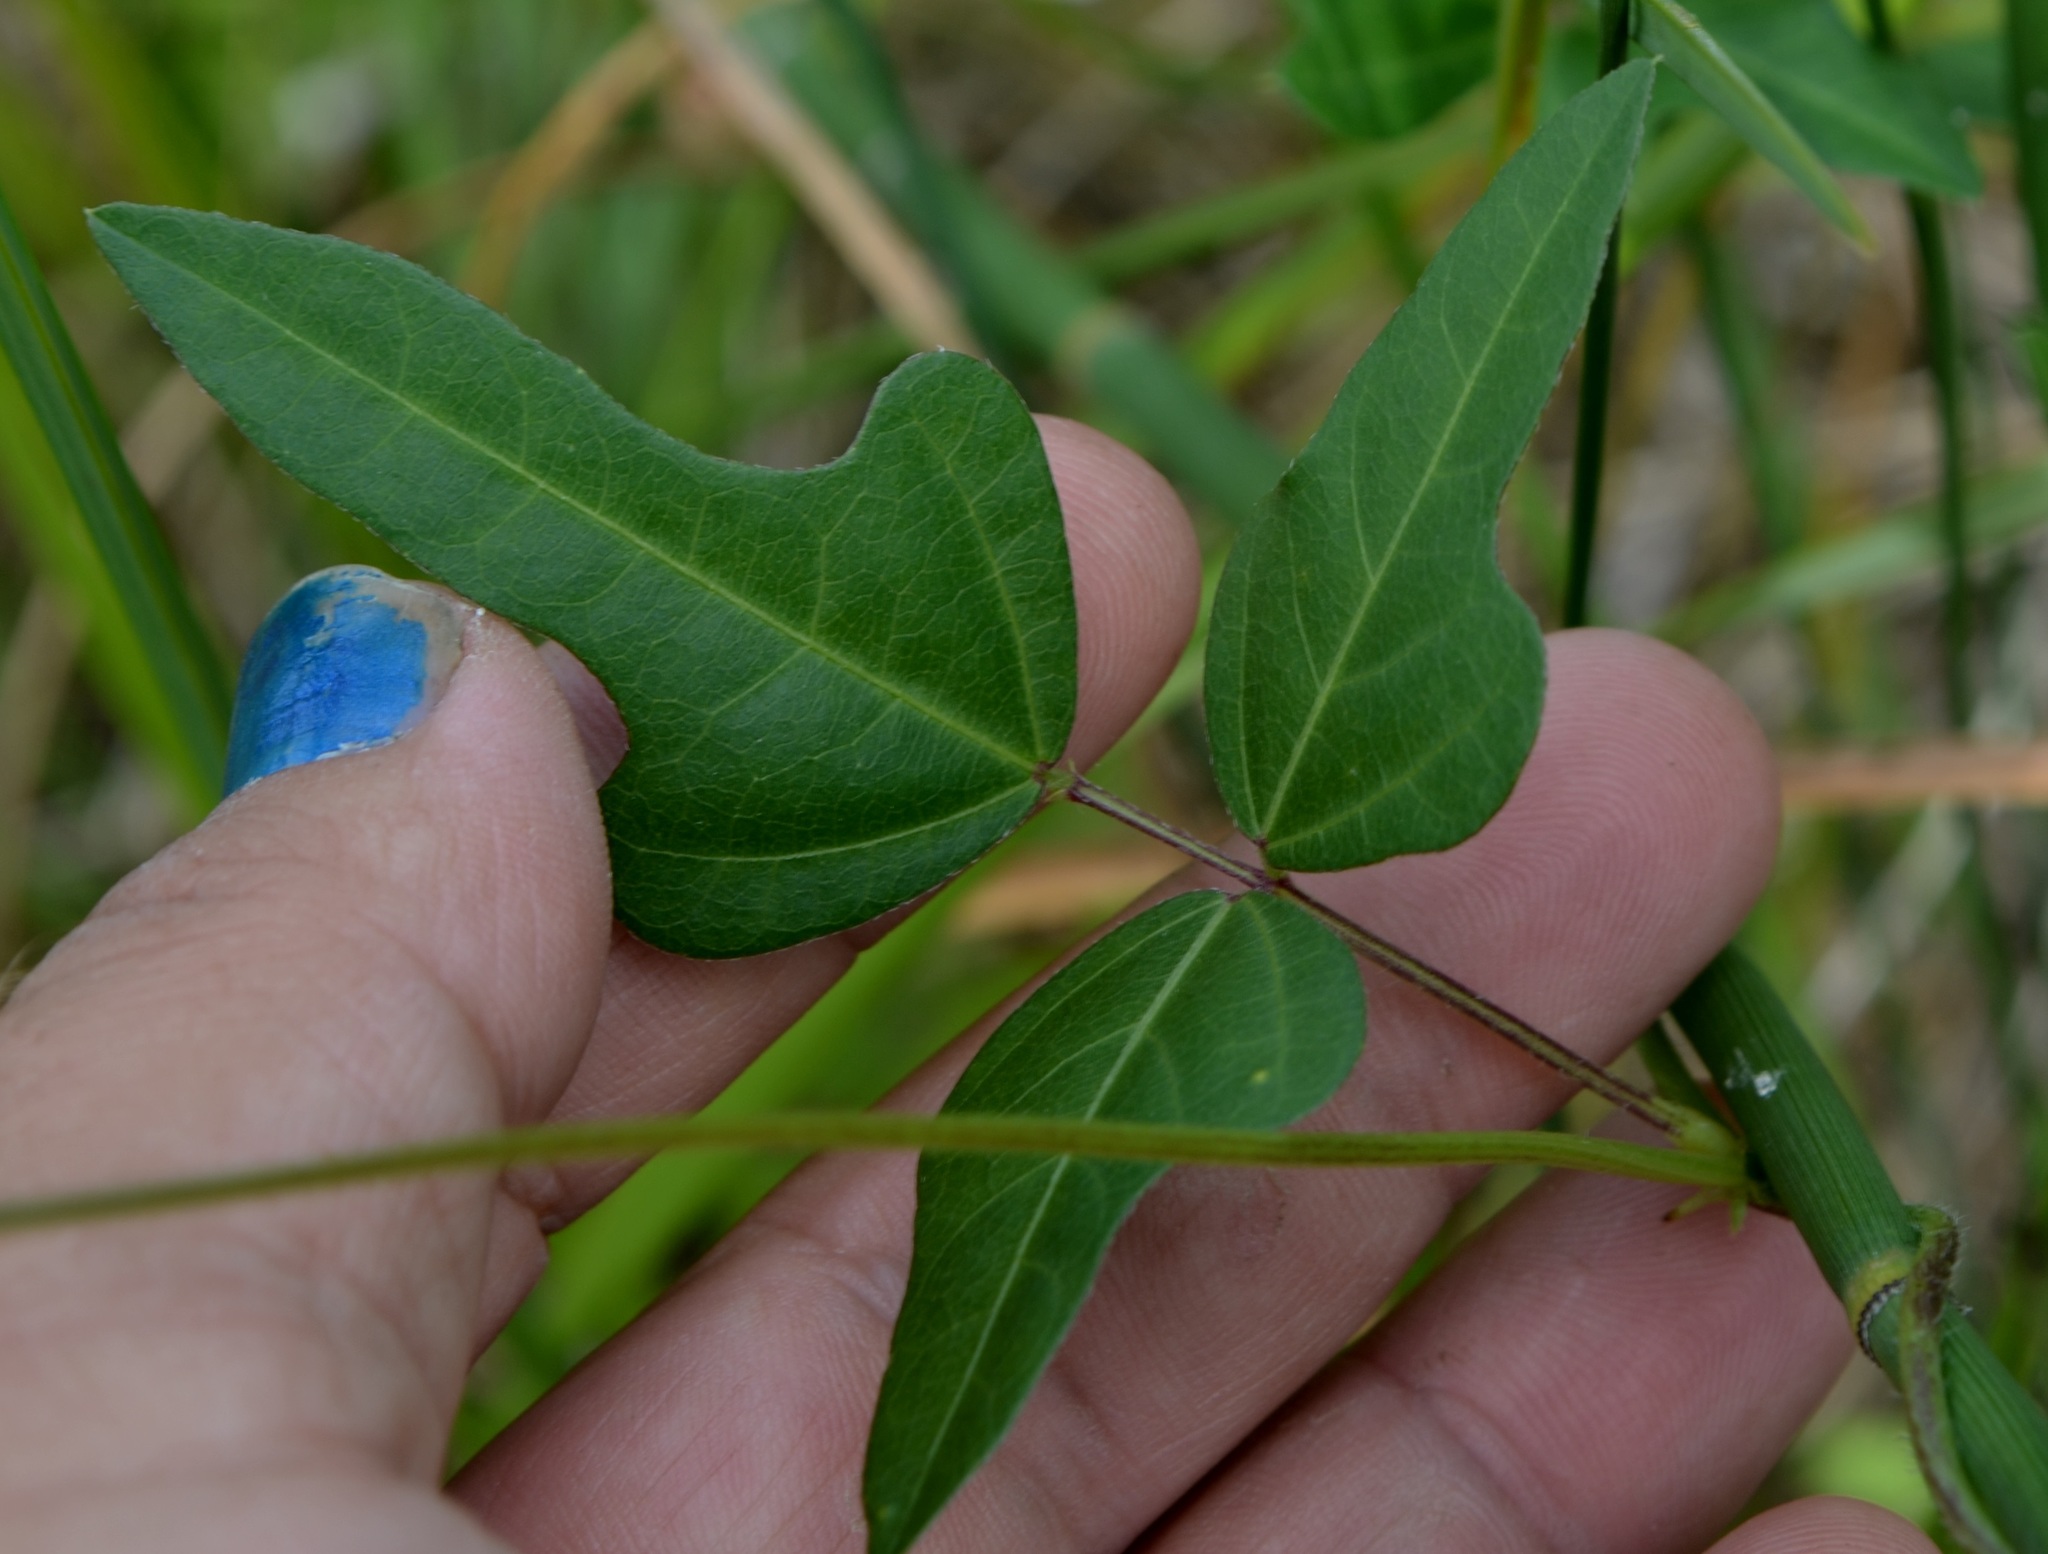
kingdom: Plantae
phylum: Tracheophyta
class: Magnoliopsida
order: Fabales
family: Fabaceae
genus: Strophostyles
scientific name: Strophostyles helvola
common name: Trailing wild bean
